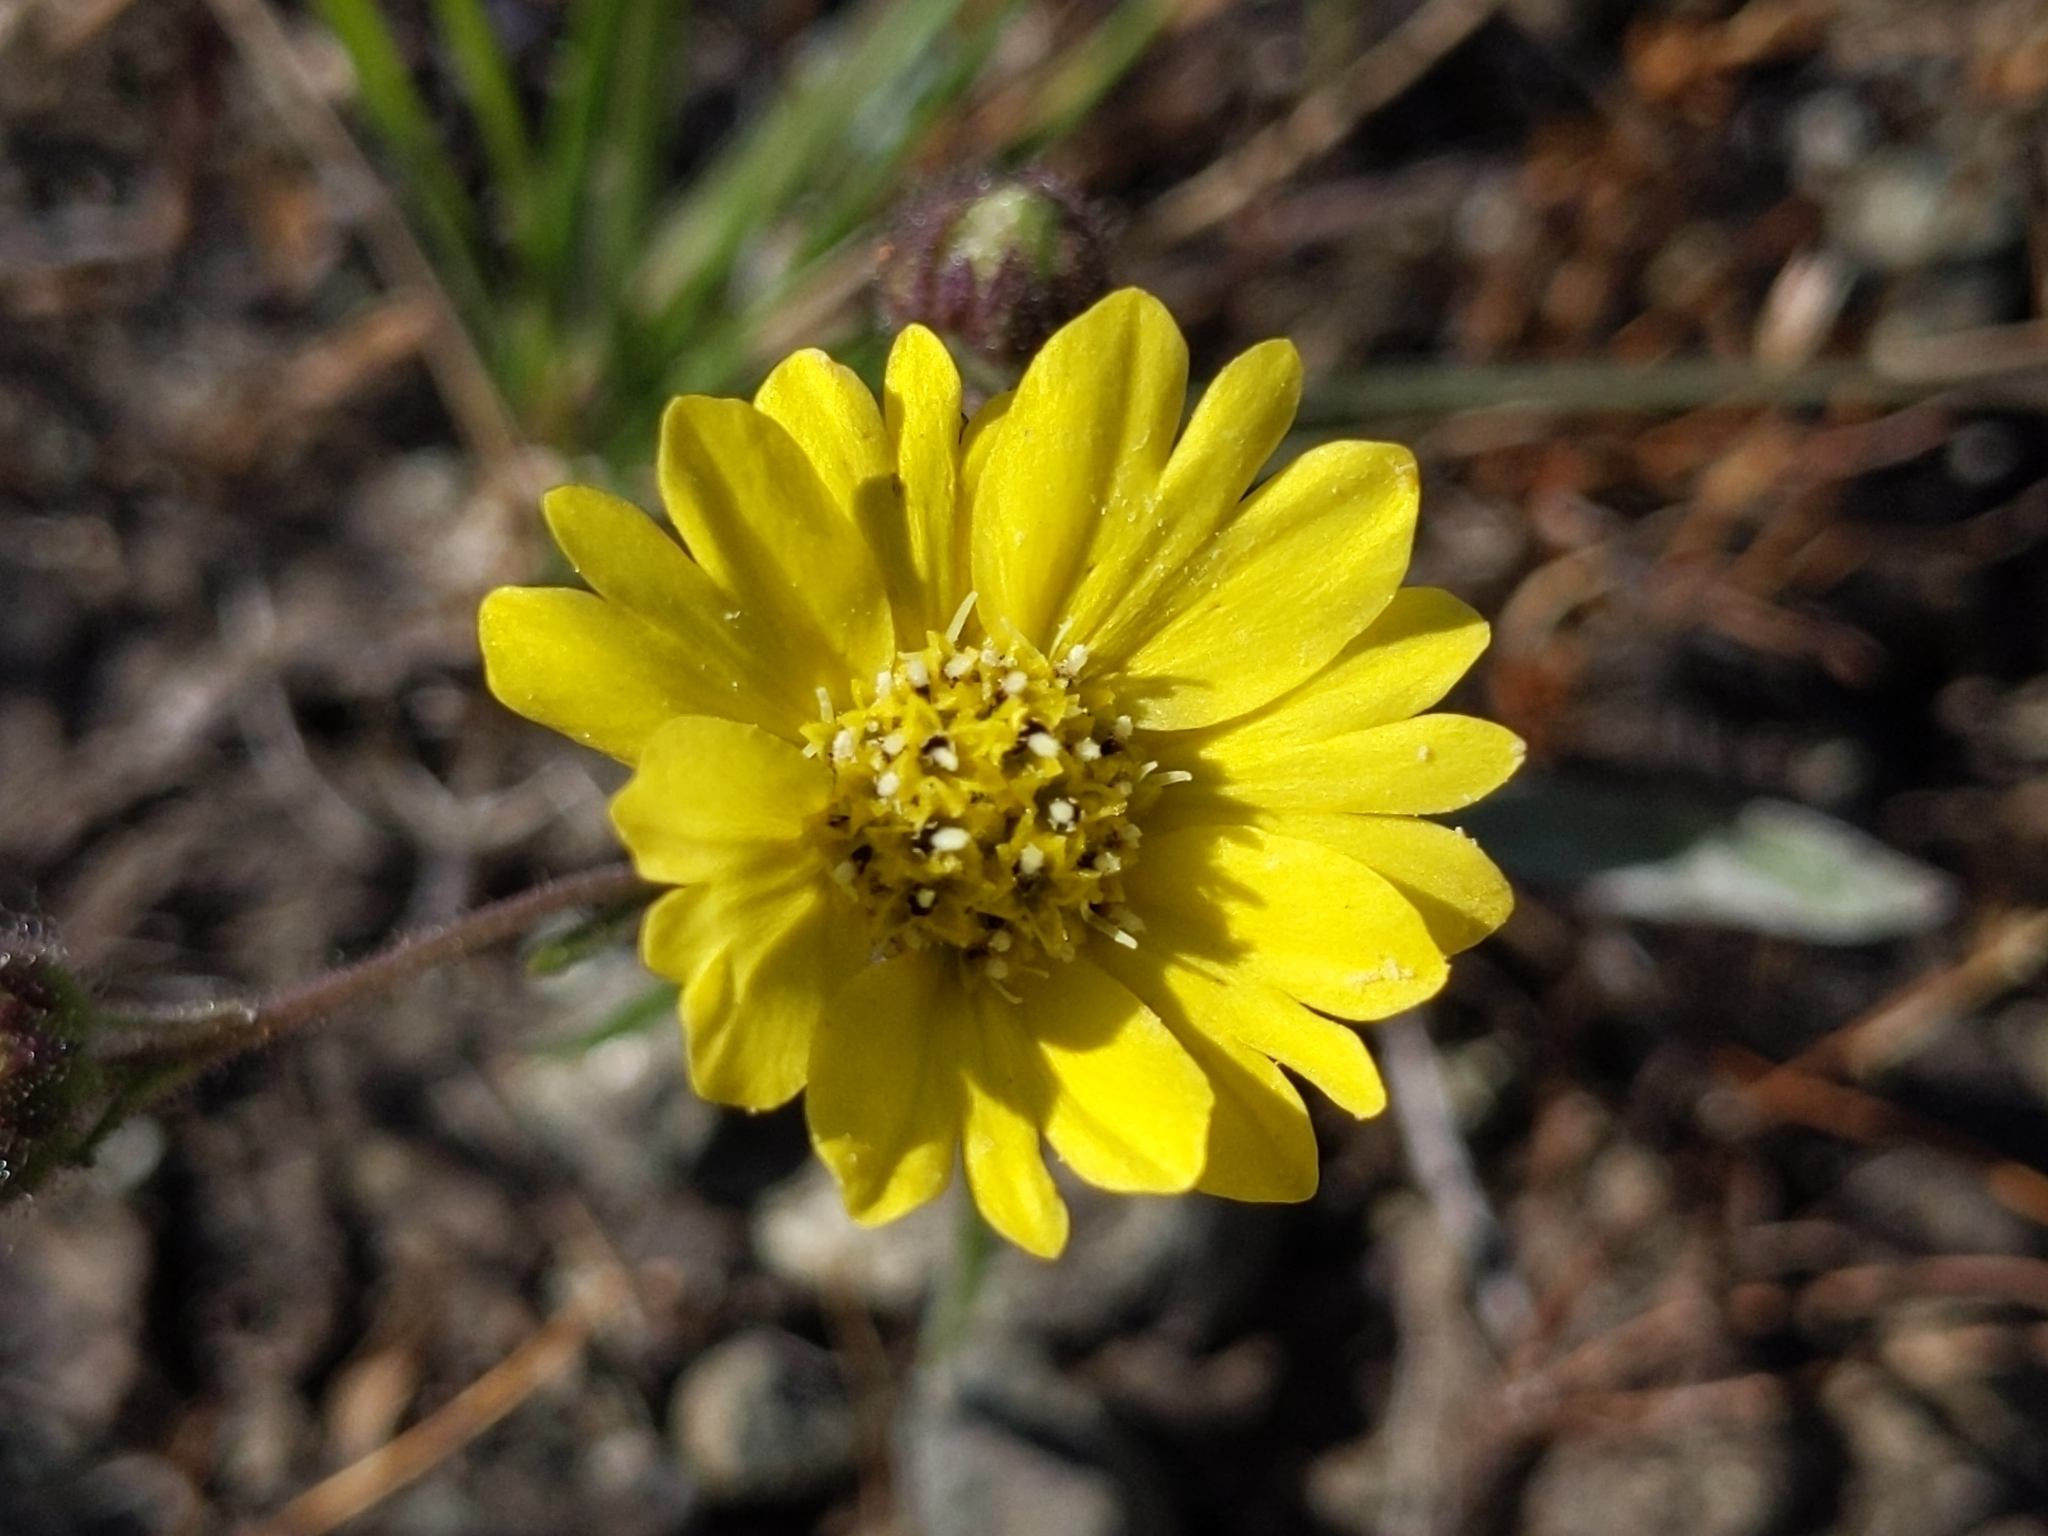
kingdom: Plantae
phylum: Tracheophyta
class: Magnoliopsida
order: Asterales
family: Asteraceae
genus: Hemizonia
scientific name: Hemizonia congesta
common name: Hayfield tarweed
